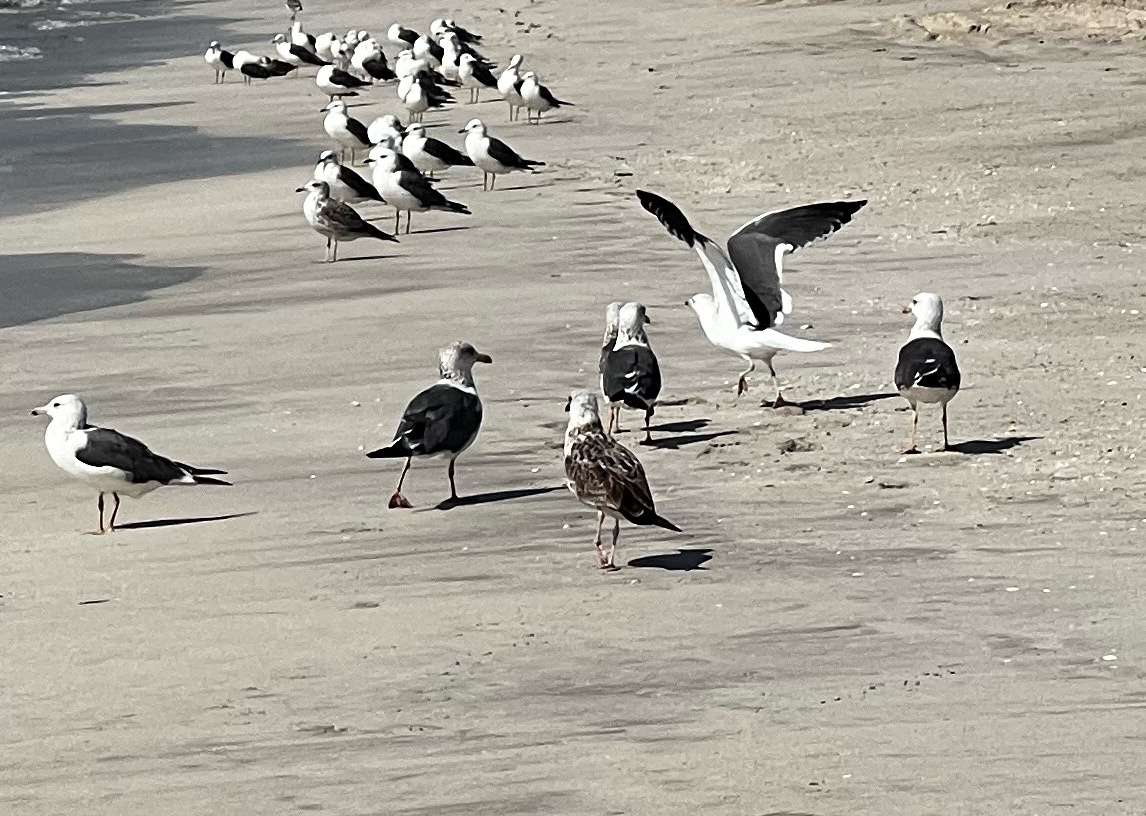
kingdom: Animalia
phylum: Chordata
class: Aves
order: Charadriiformes
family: Laridae
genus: Larus
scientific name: Larus fuscus
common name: Lesser black-backed gull
